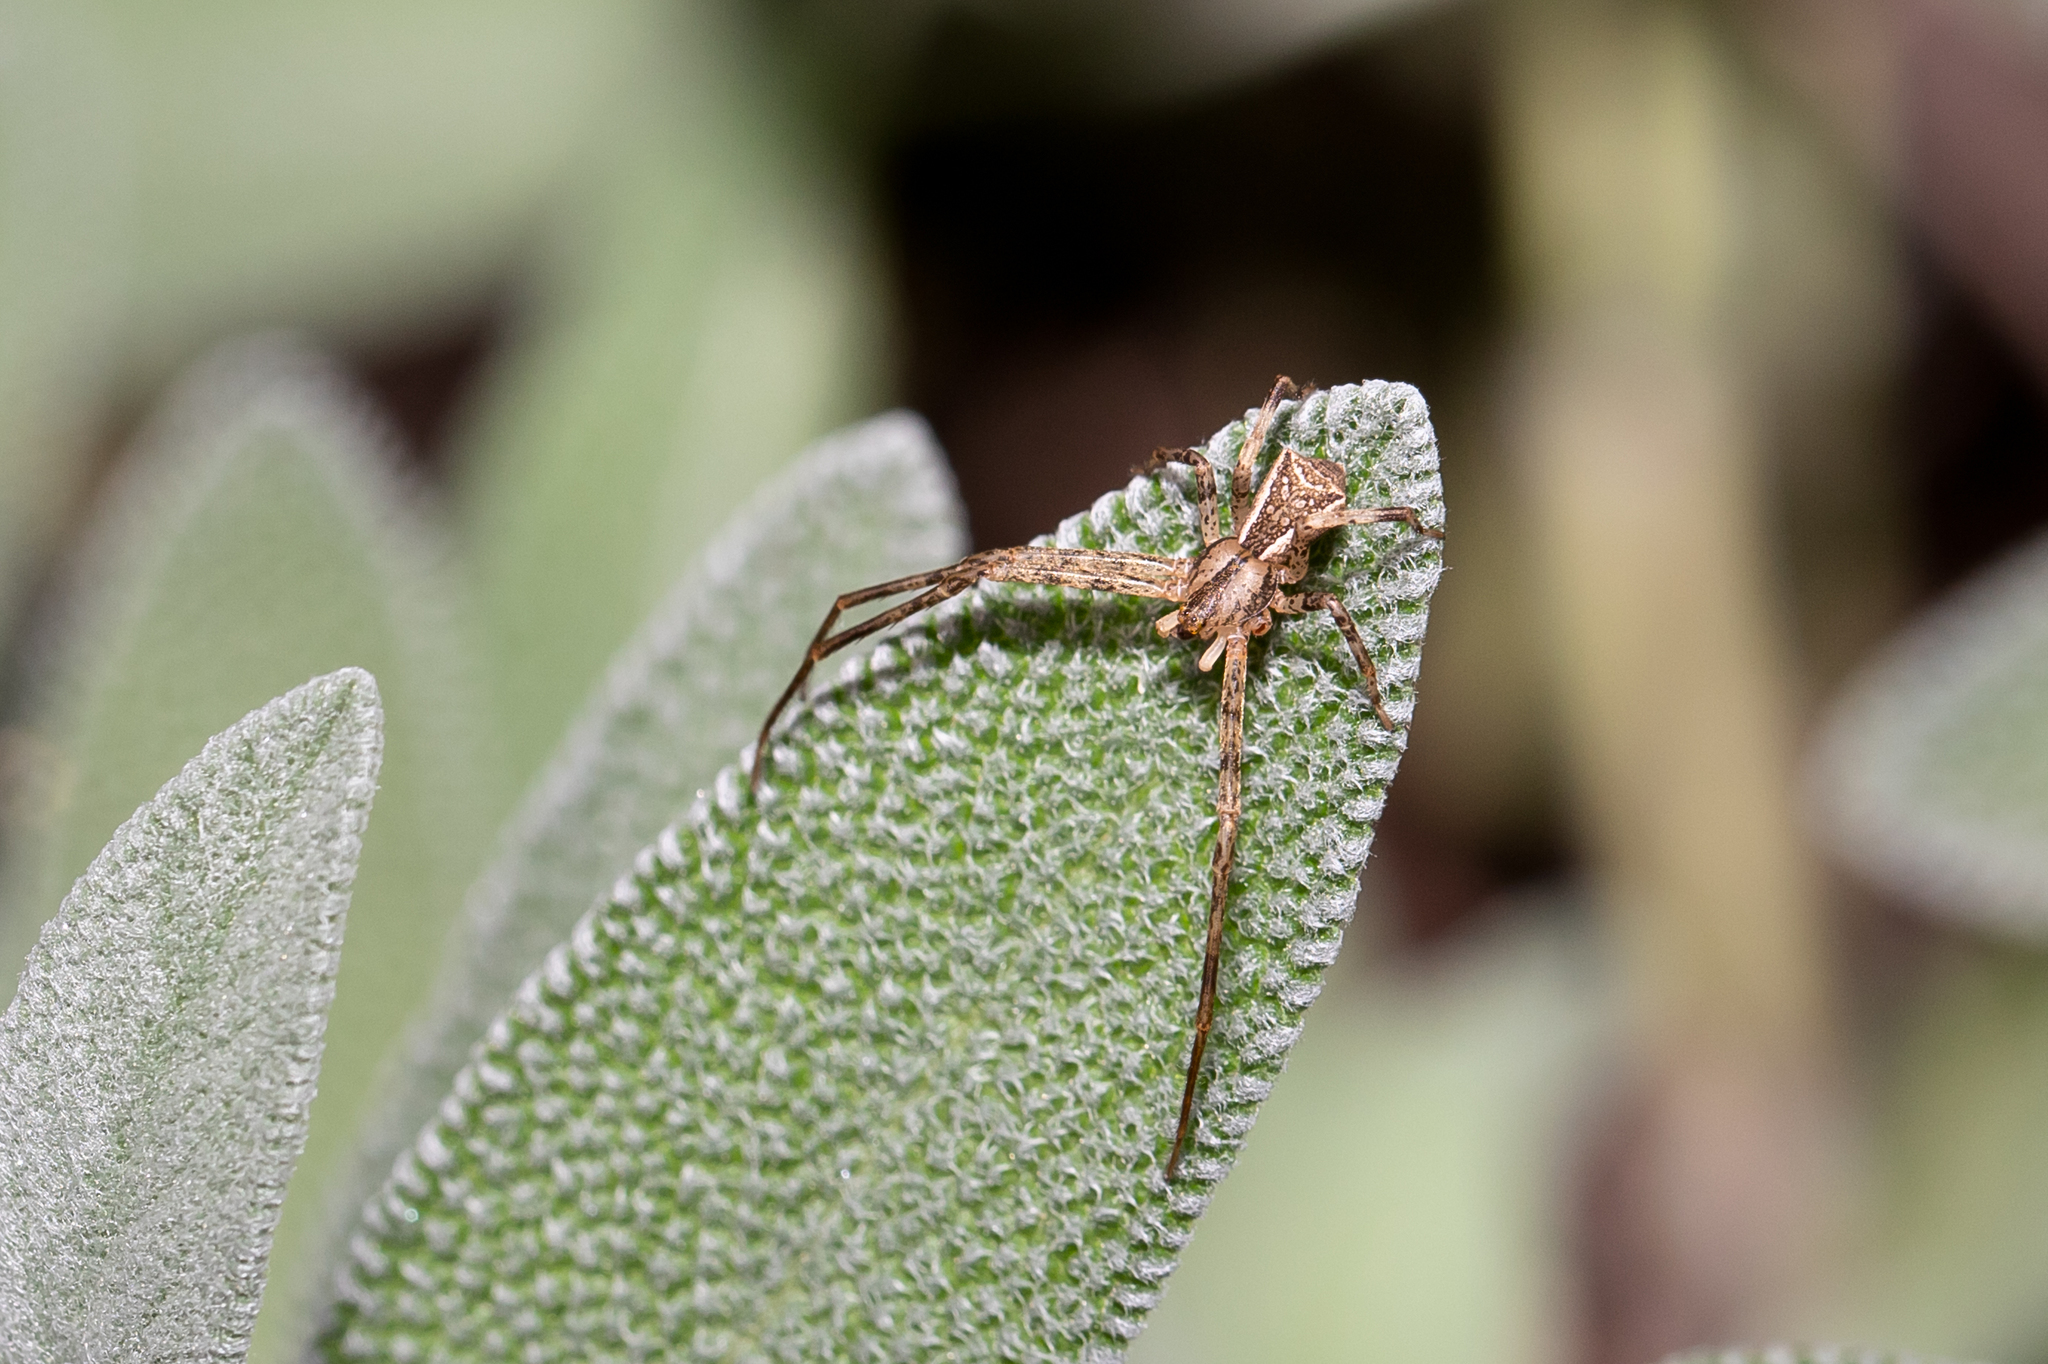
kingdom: Animalia
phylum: Arthropoda
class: Arachnida
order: Araneae
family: Thomisidae
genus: Sidymella
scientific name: Sidymella longipes
